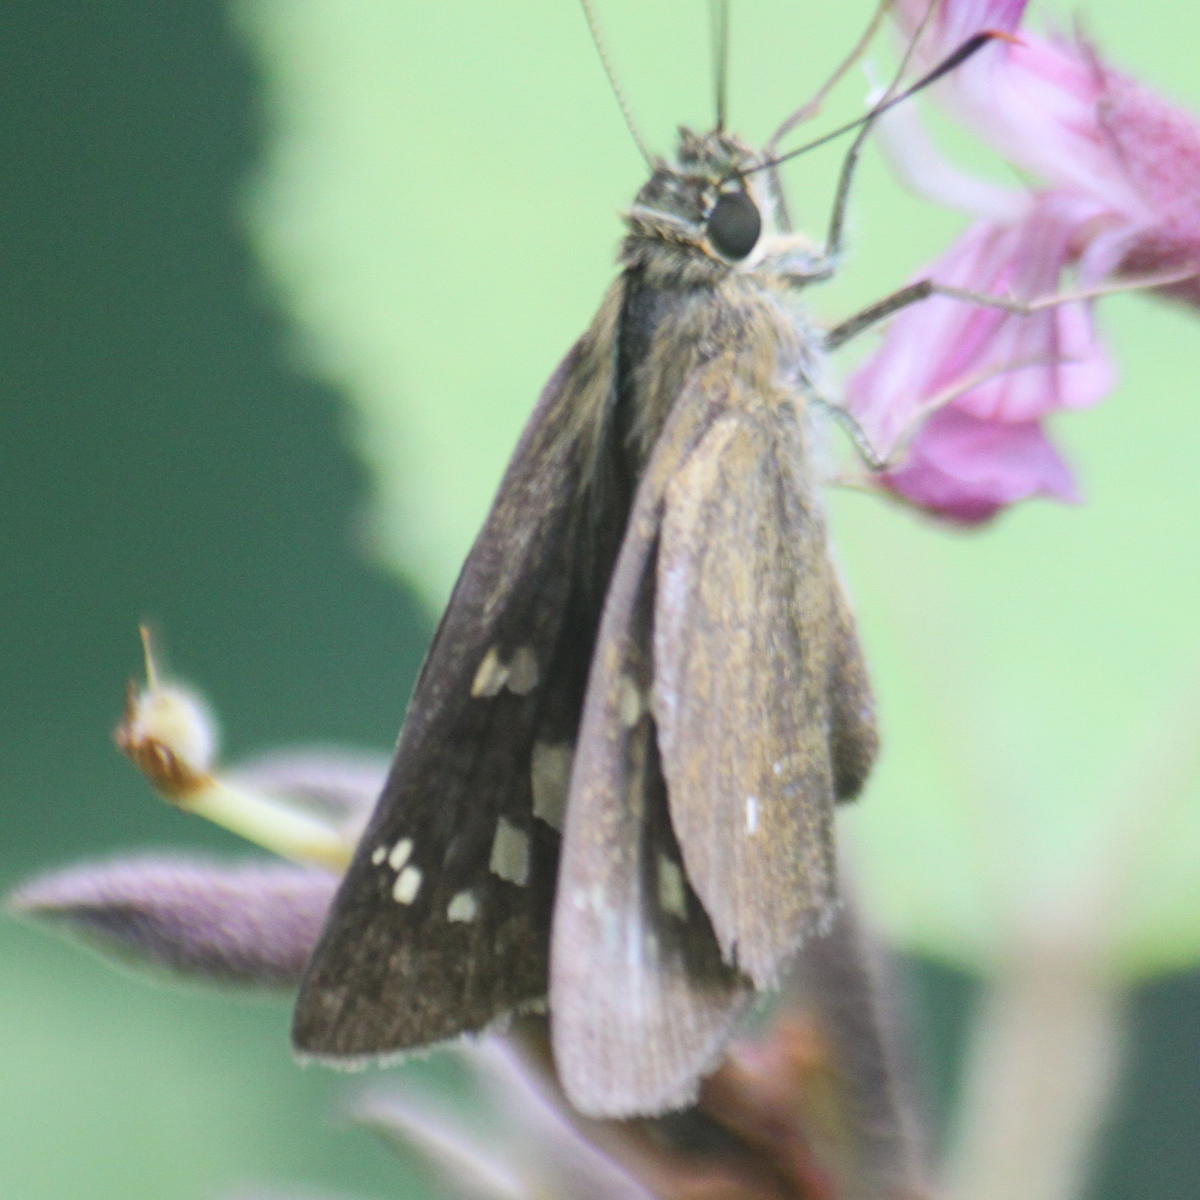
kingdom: Animalia
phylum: Arthropoda
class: Insecta
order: Lepidoptera
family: Hesperiidae
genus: Polytremis
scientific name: Polytremis lubricans
